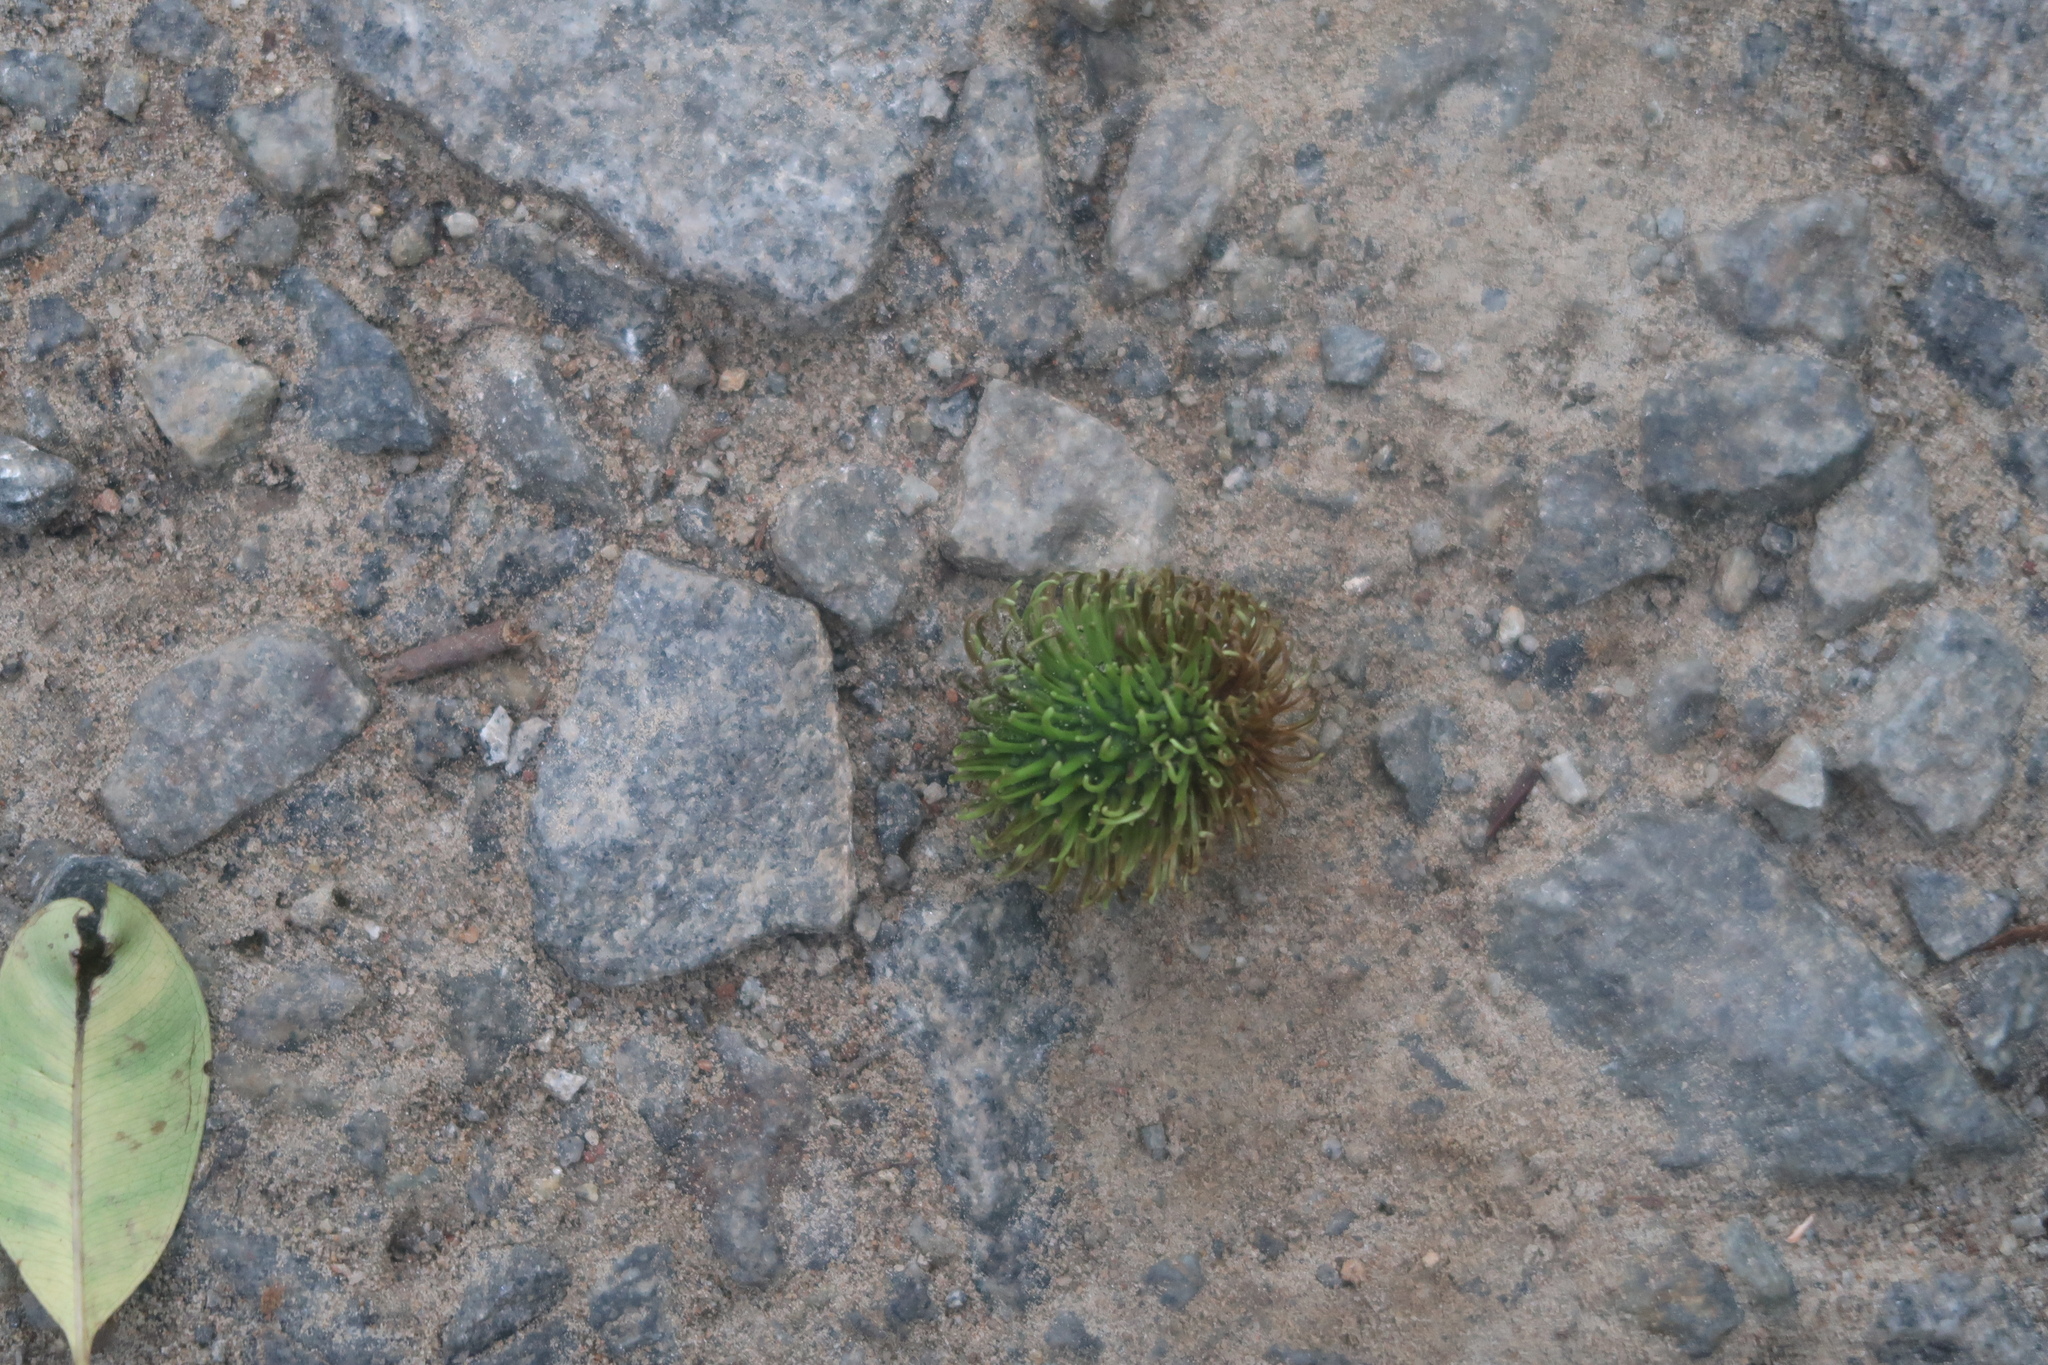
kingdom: Plantae
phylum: Tracheophyta
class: Magnoliopsida
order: Sapindales
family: Sapindaceae
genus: Nephelium
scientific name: Nephelium lappaceum
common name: Rambutan
